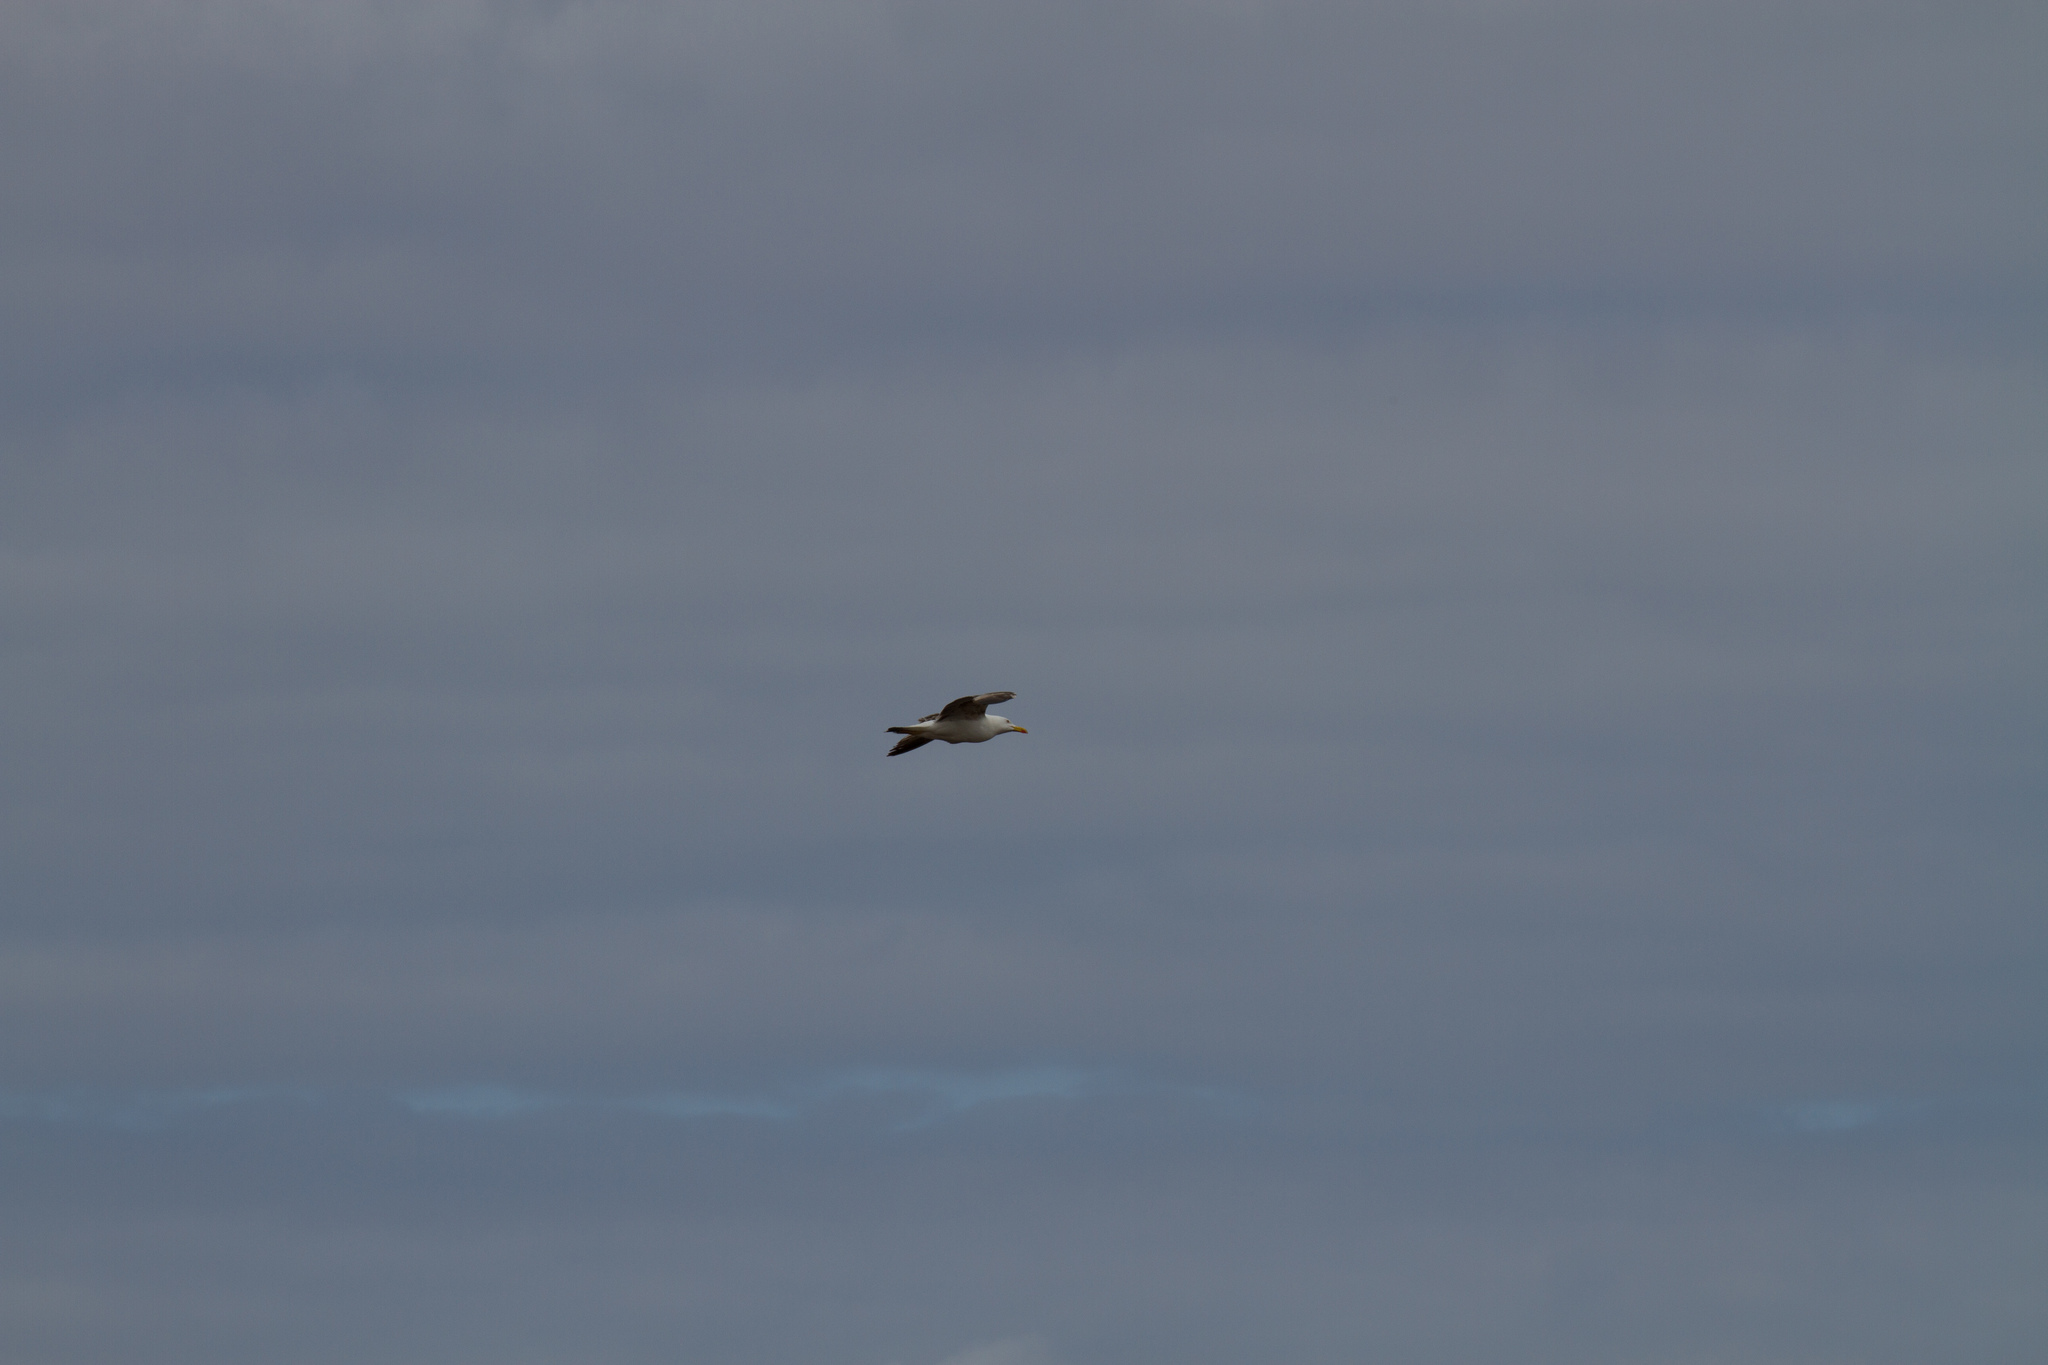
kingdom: Animalia
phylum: Chordata
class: Aves
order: Charadriiformes
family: Laridae
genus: Larus
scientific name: Larus fuscus
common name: Lesser black-backed gull
